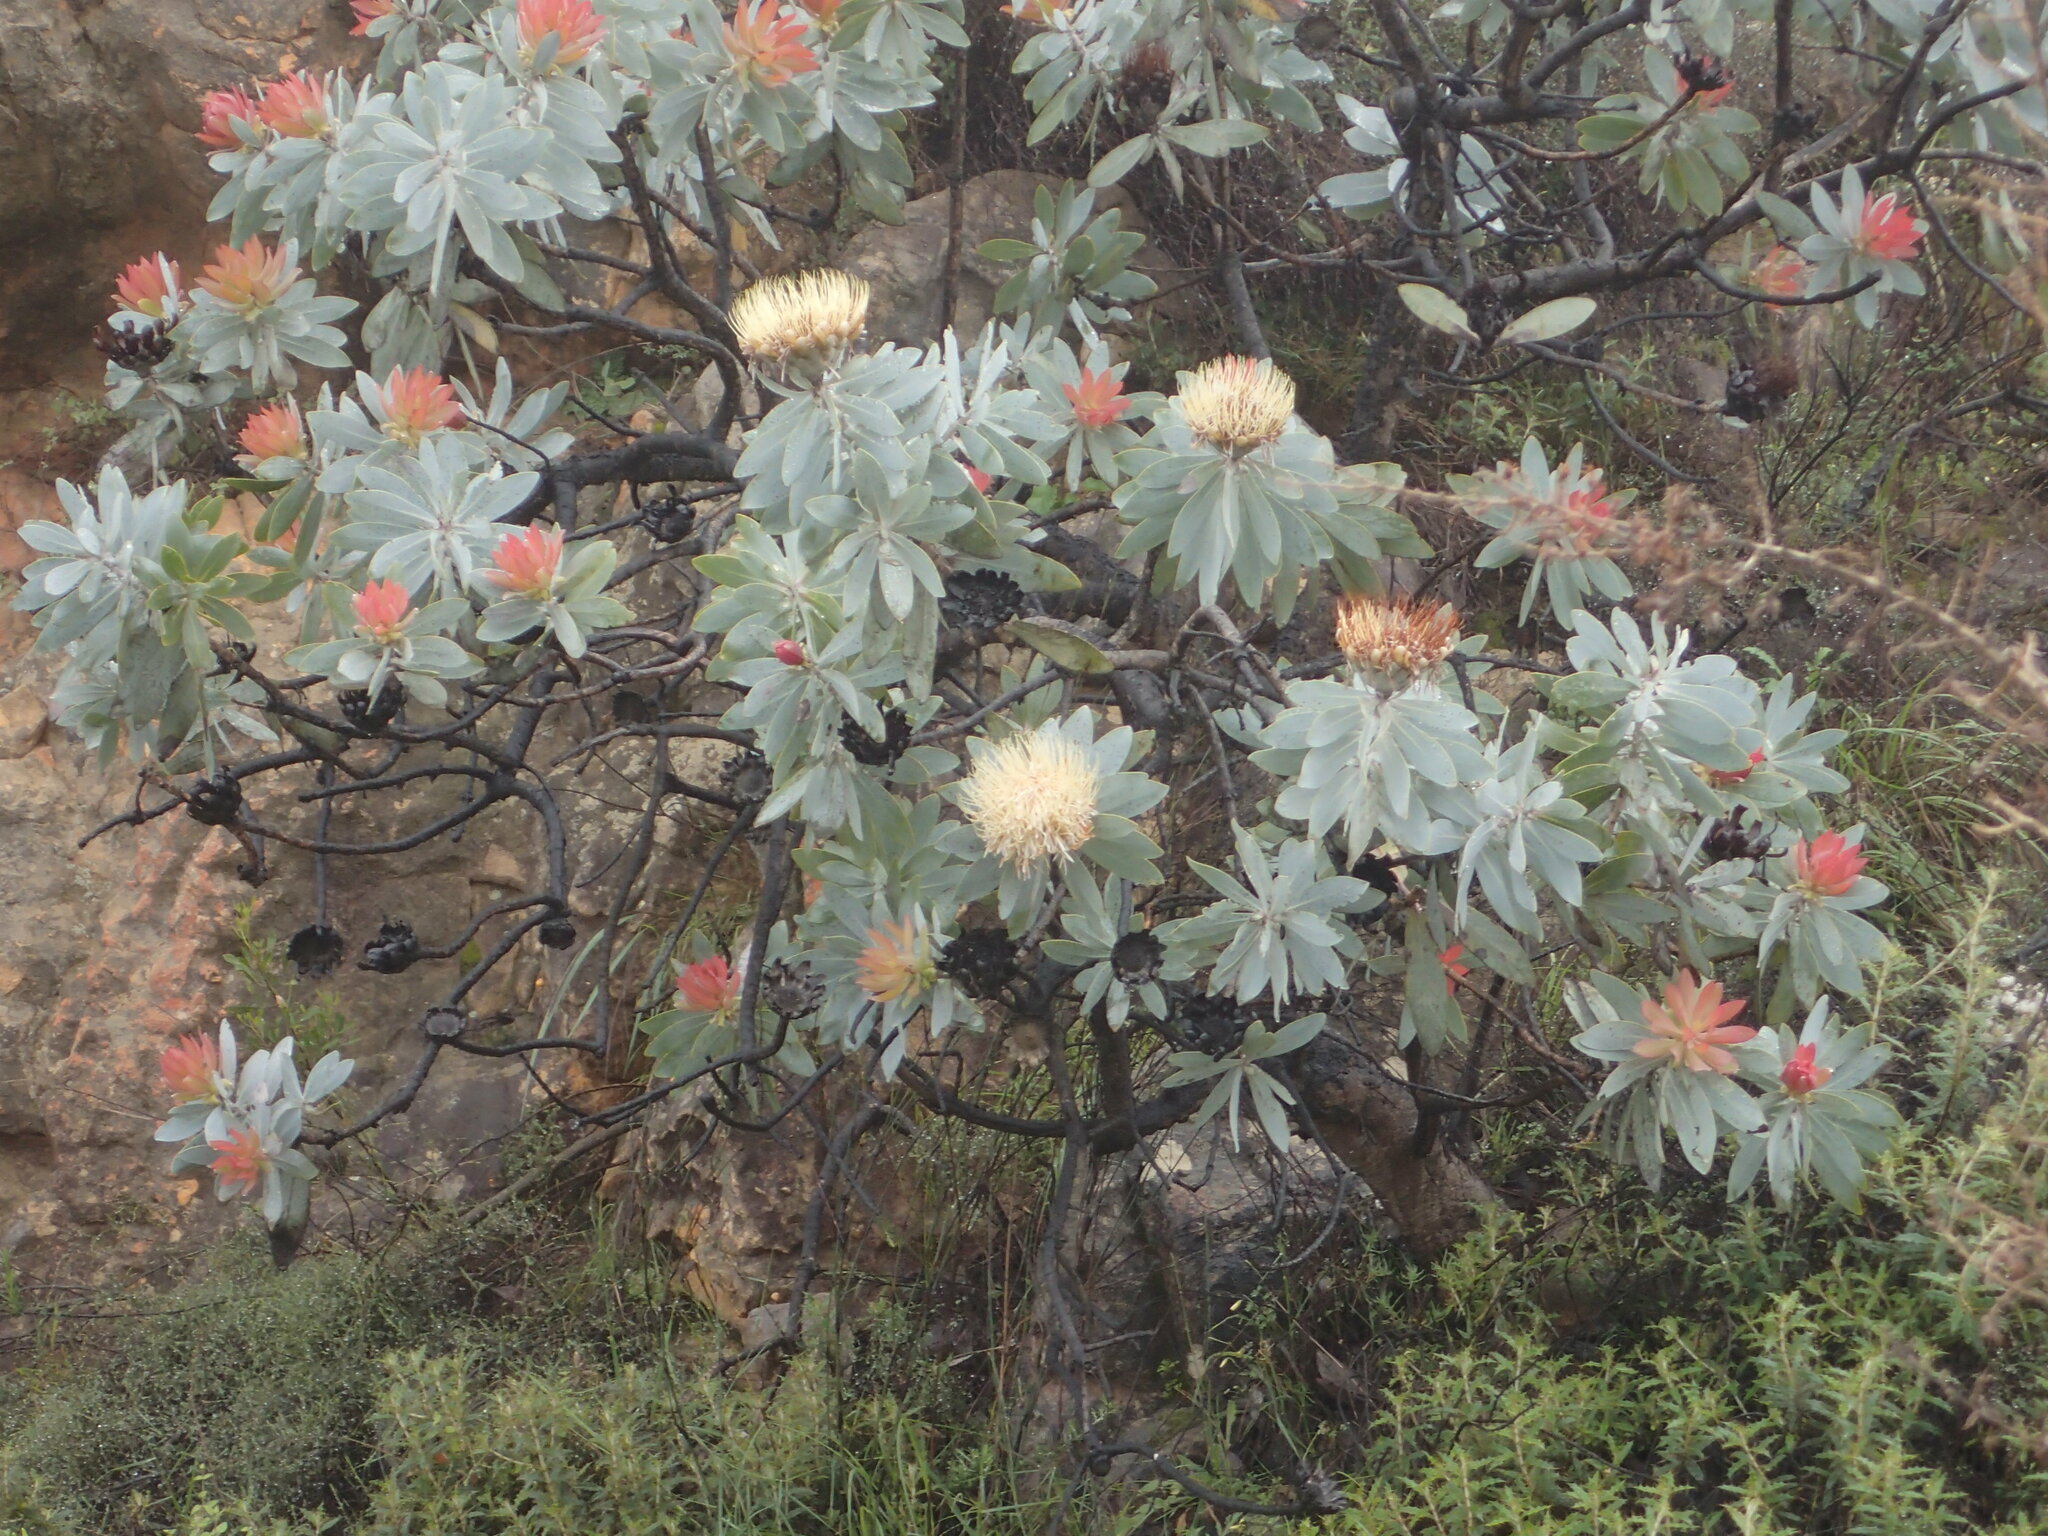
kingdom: Plantae
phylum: Tracheophyta
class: Magnoliopsida
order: Proteales
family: Proteaceae
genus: Protea
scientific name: Protea nitida
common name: Tree protea
